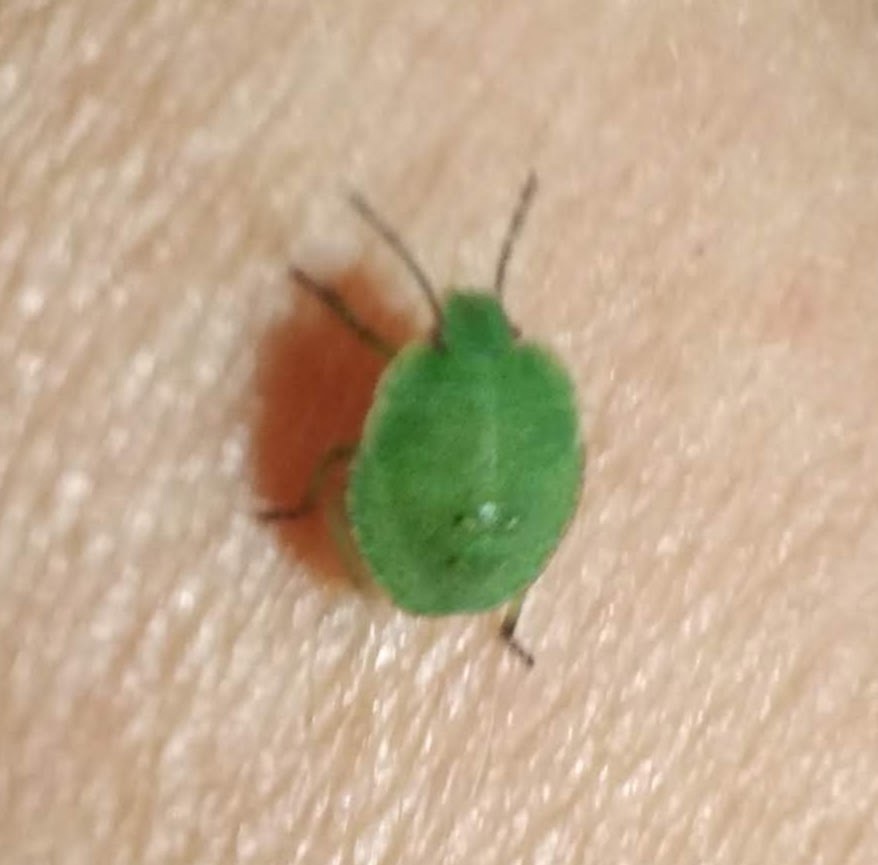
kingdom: Animalia
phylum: Arthropoda
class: Insecta
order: Hemiptera
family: Pentatomidae
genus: Palomena
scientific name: Palomena prasina
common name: Green shieldbug
